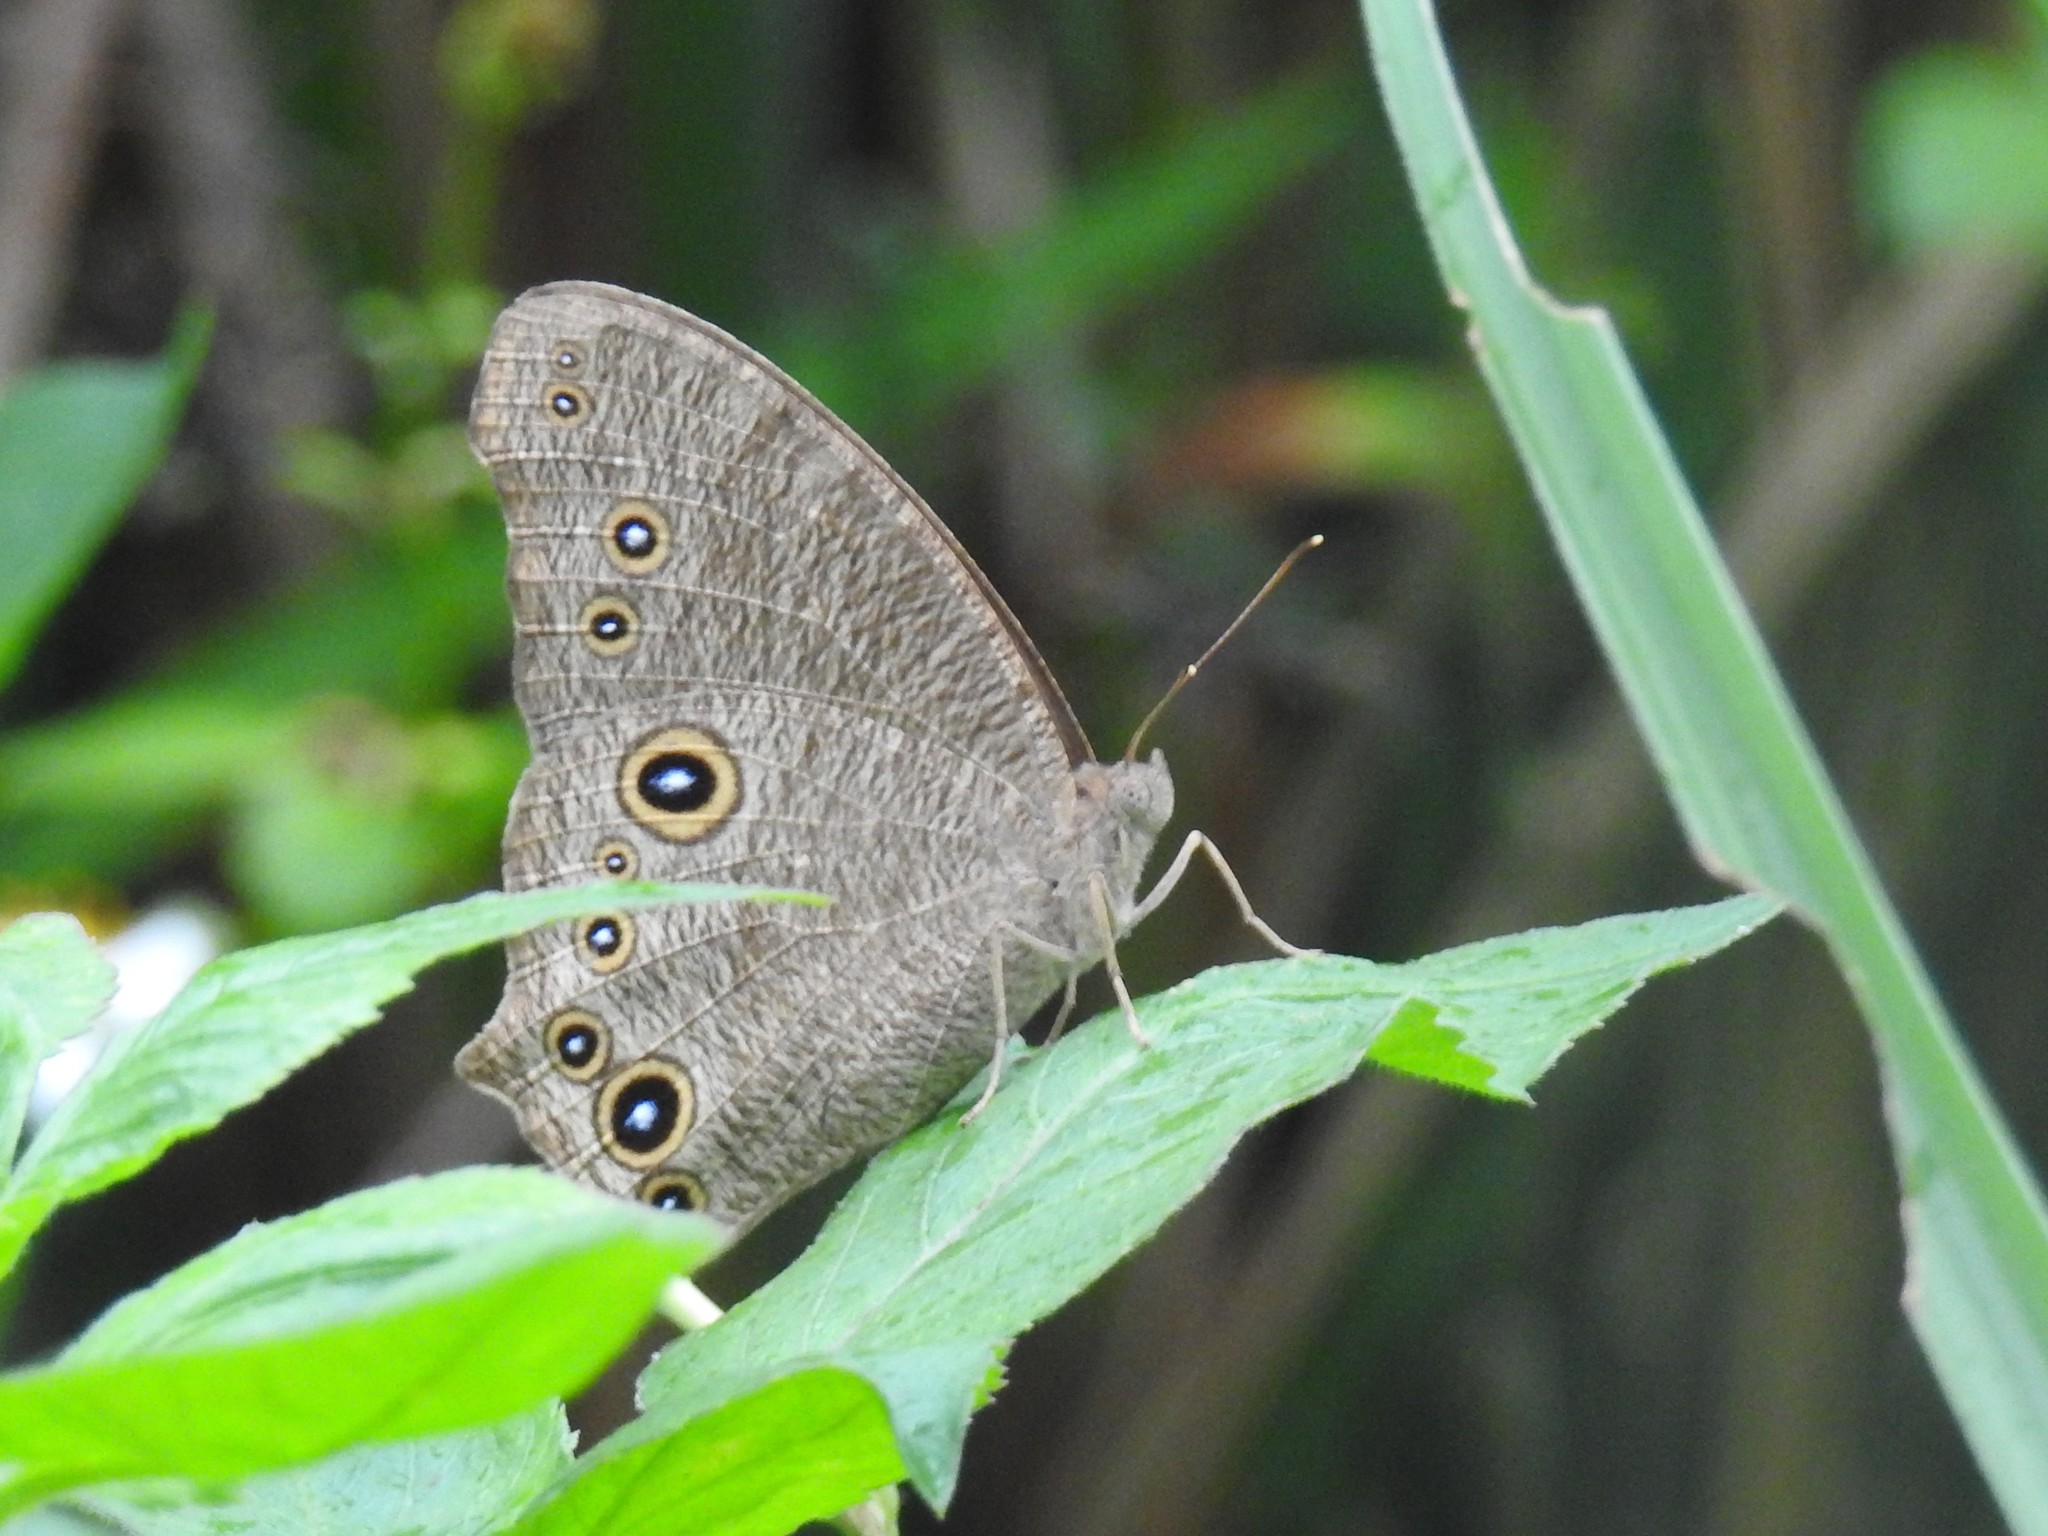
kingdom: Animalia
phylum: Arthropoda
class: Insecta
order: Lepidoptera
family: Nymphalidae
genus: Melanitis
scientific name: Melanitis leda
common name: Twilight brown
